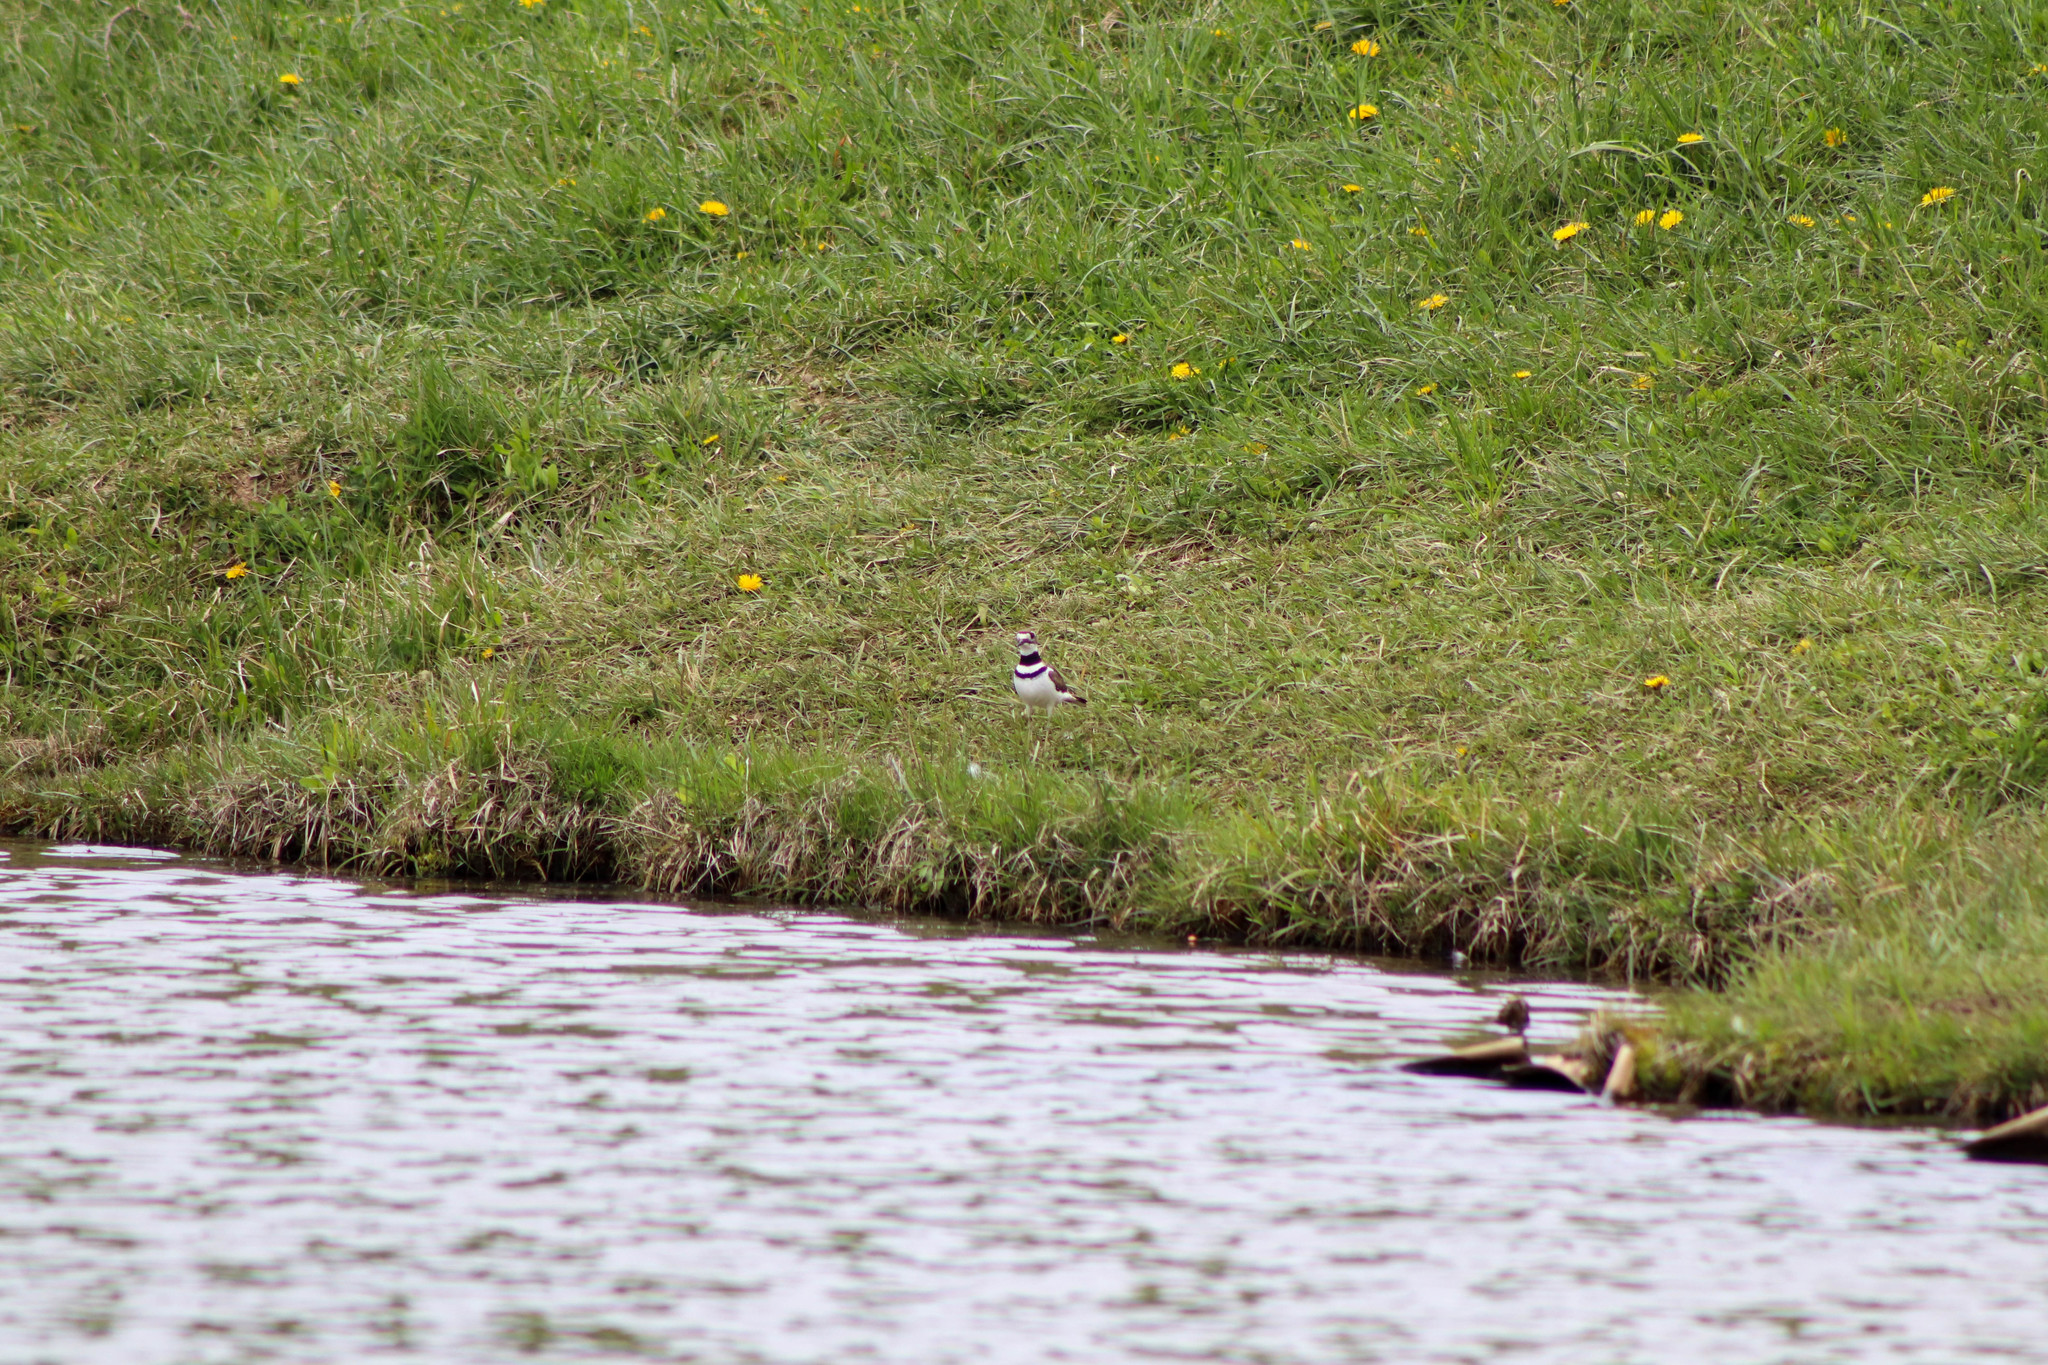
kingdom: Animalia
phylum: Chordata
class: Aves
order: Charadriiformes
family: Charadriidae
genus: Charadrius
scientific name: Charadrius vociferus
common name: Killdeer
